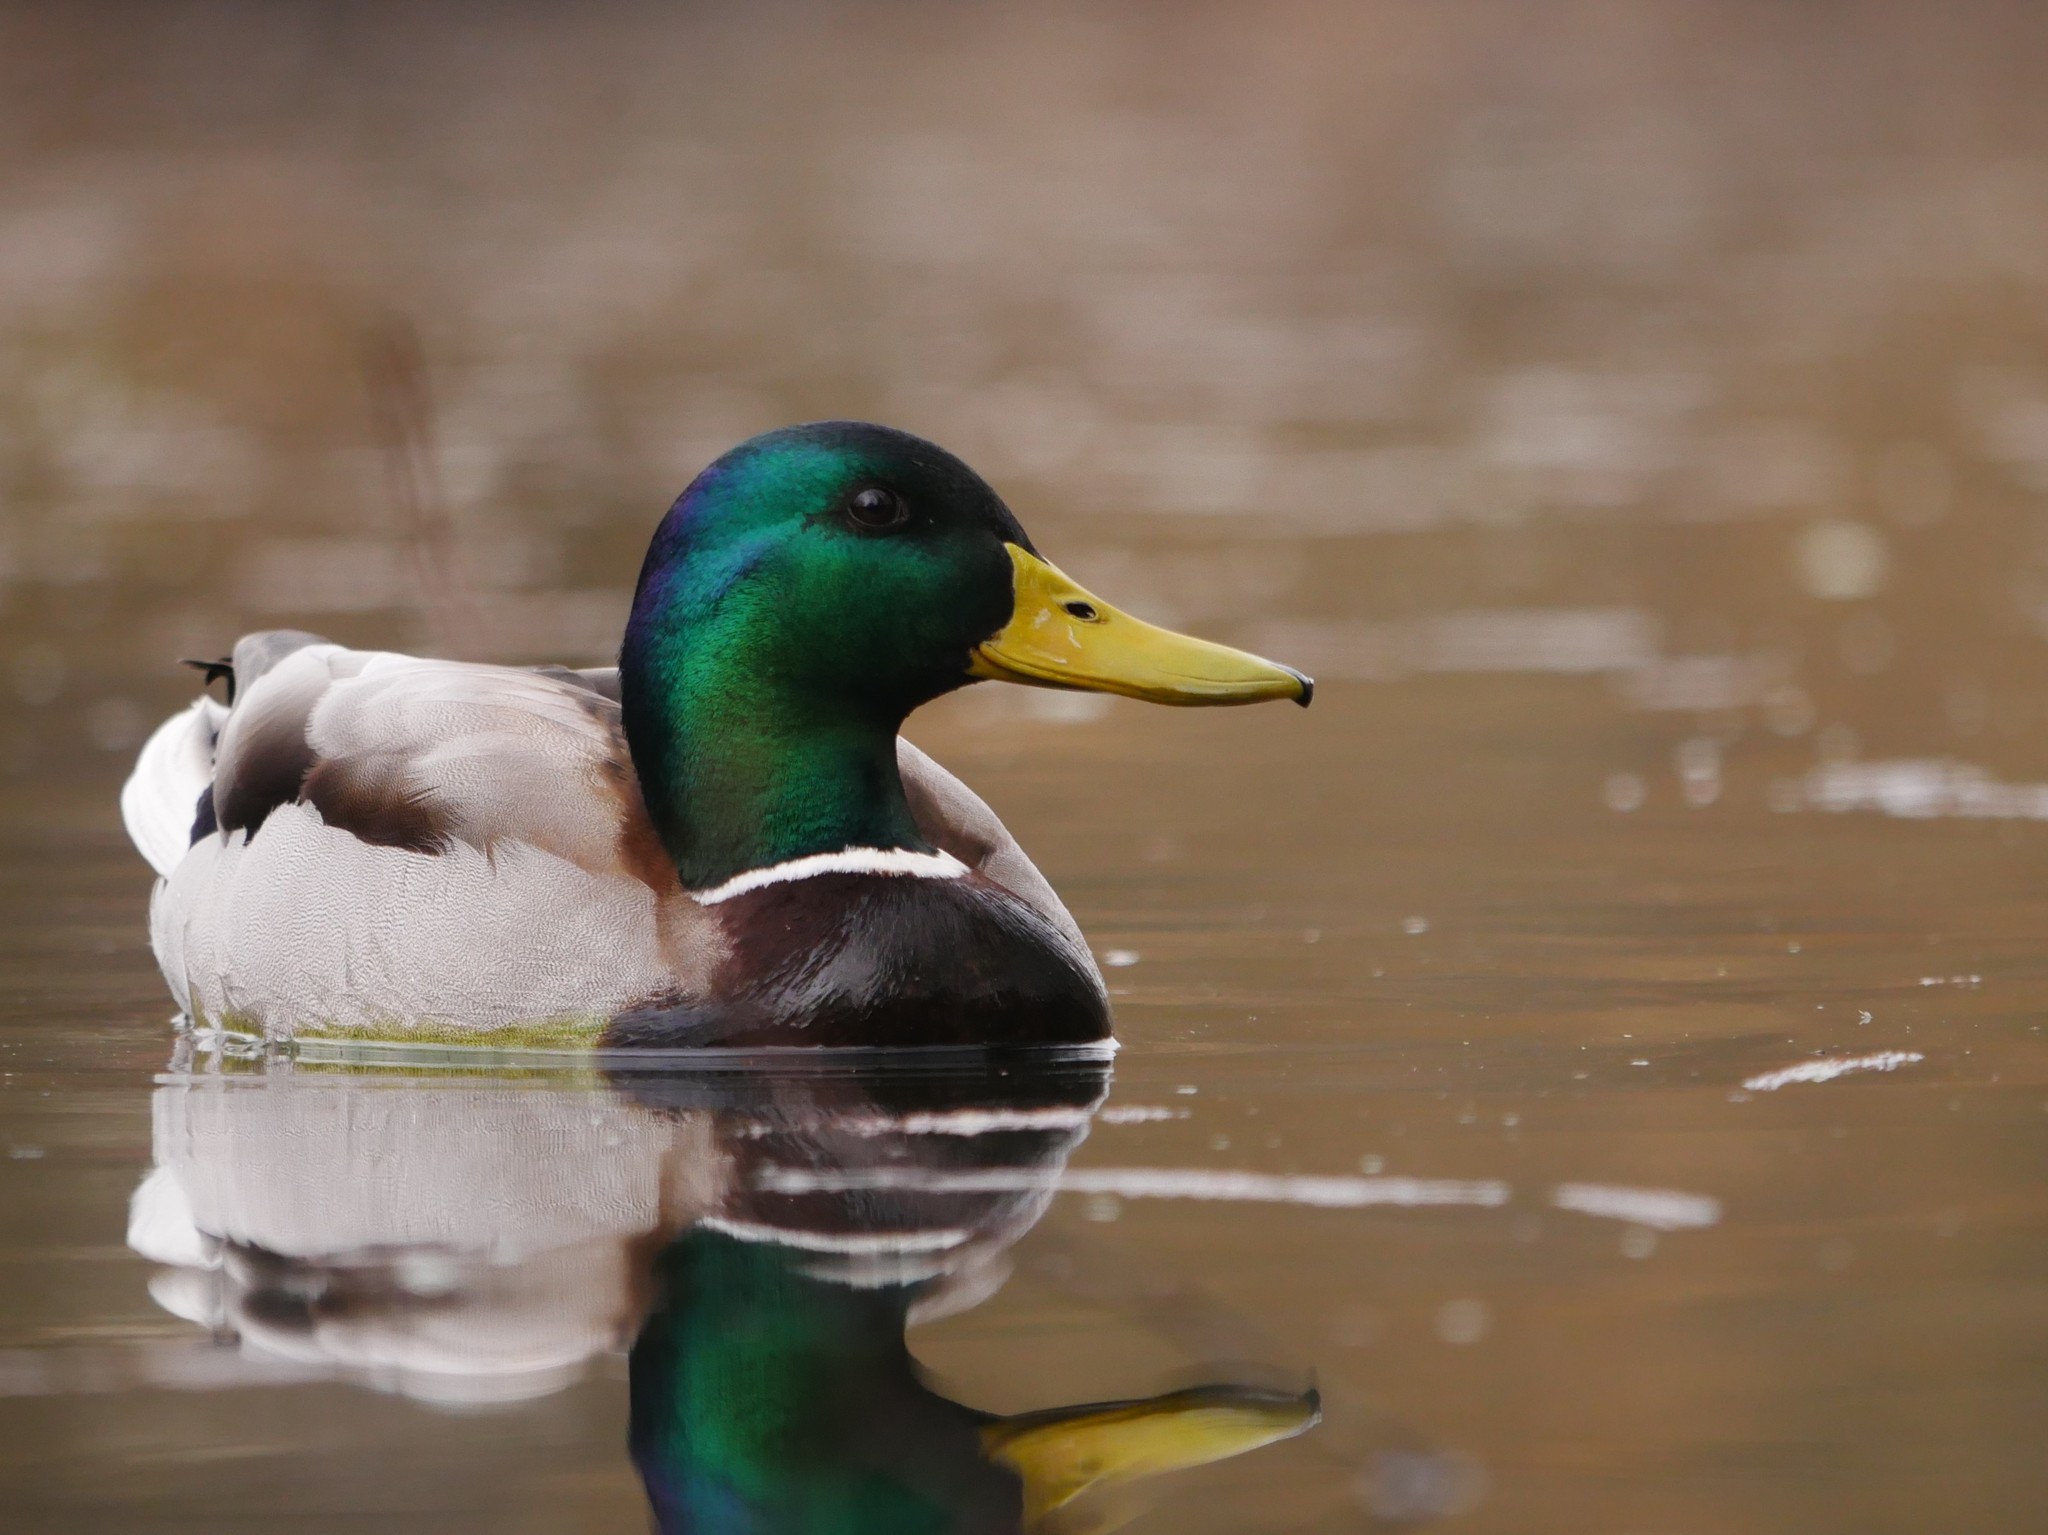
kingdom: Animalia
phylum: Chordata
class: Aves
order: Anseriformes
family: Anatidae
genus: Anas
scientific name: Anas platyrhynchos
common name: Mallard
